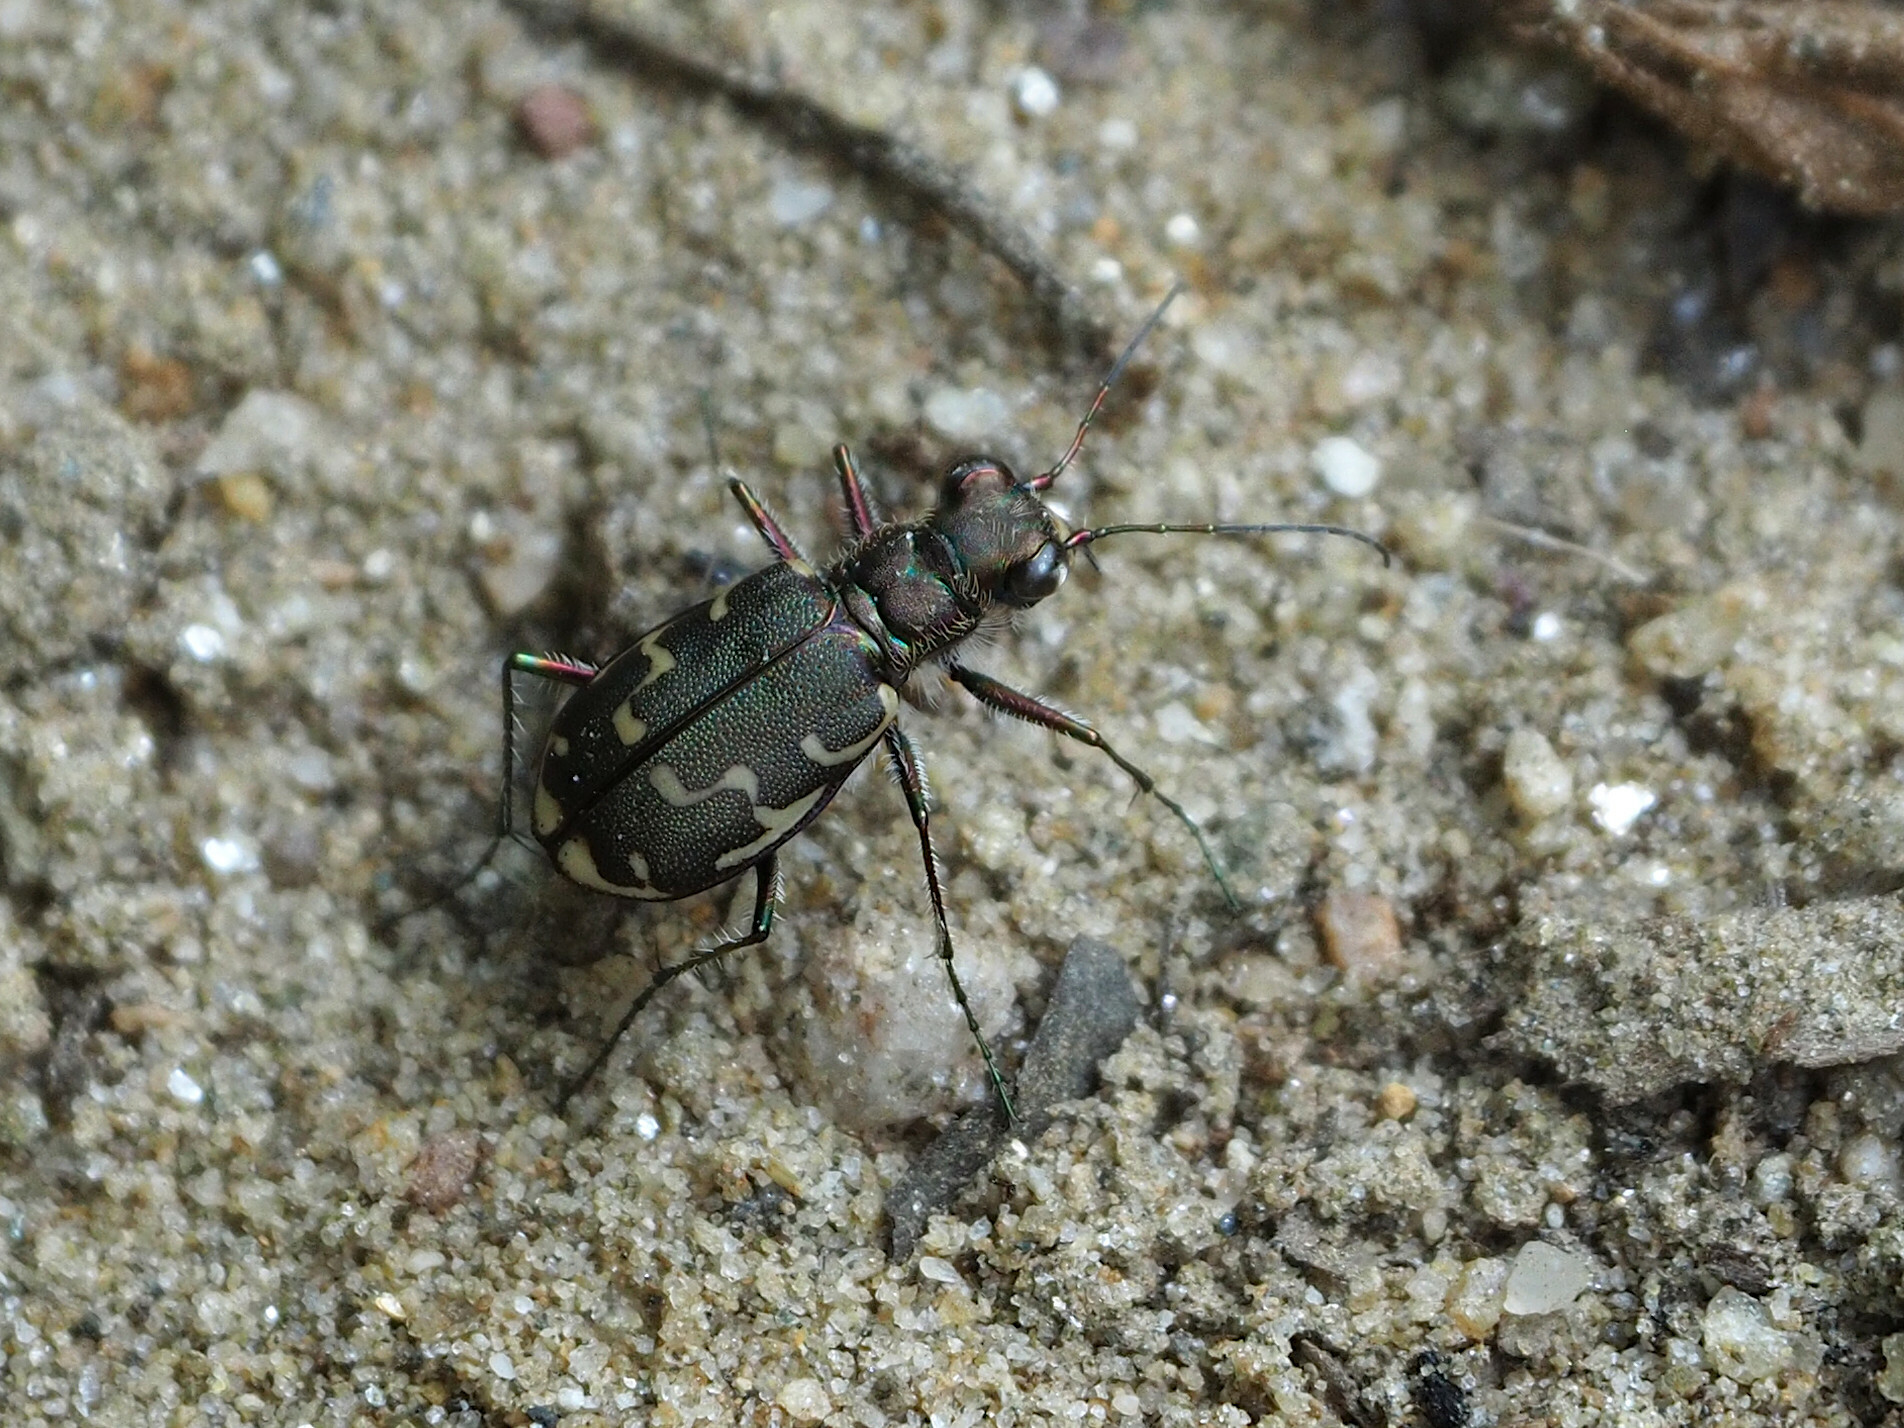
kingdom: Animalia
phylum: Arthropoda
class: Insecta
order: Coleoptera
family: Carabidae
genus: Cicindela
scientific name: Cicindela repanda
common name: Bronzed tiger beetle
